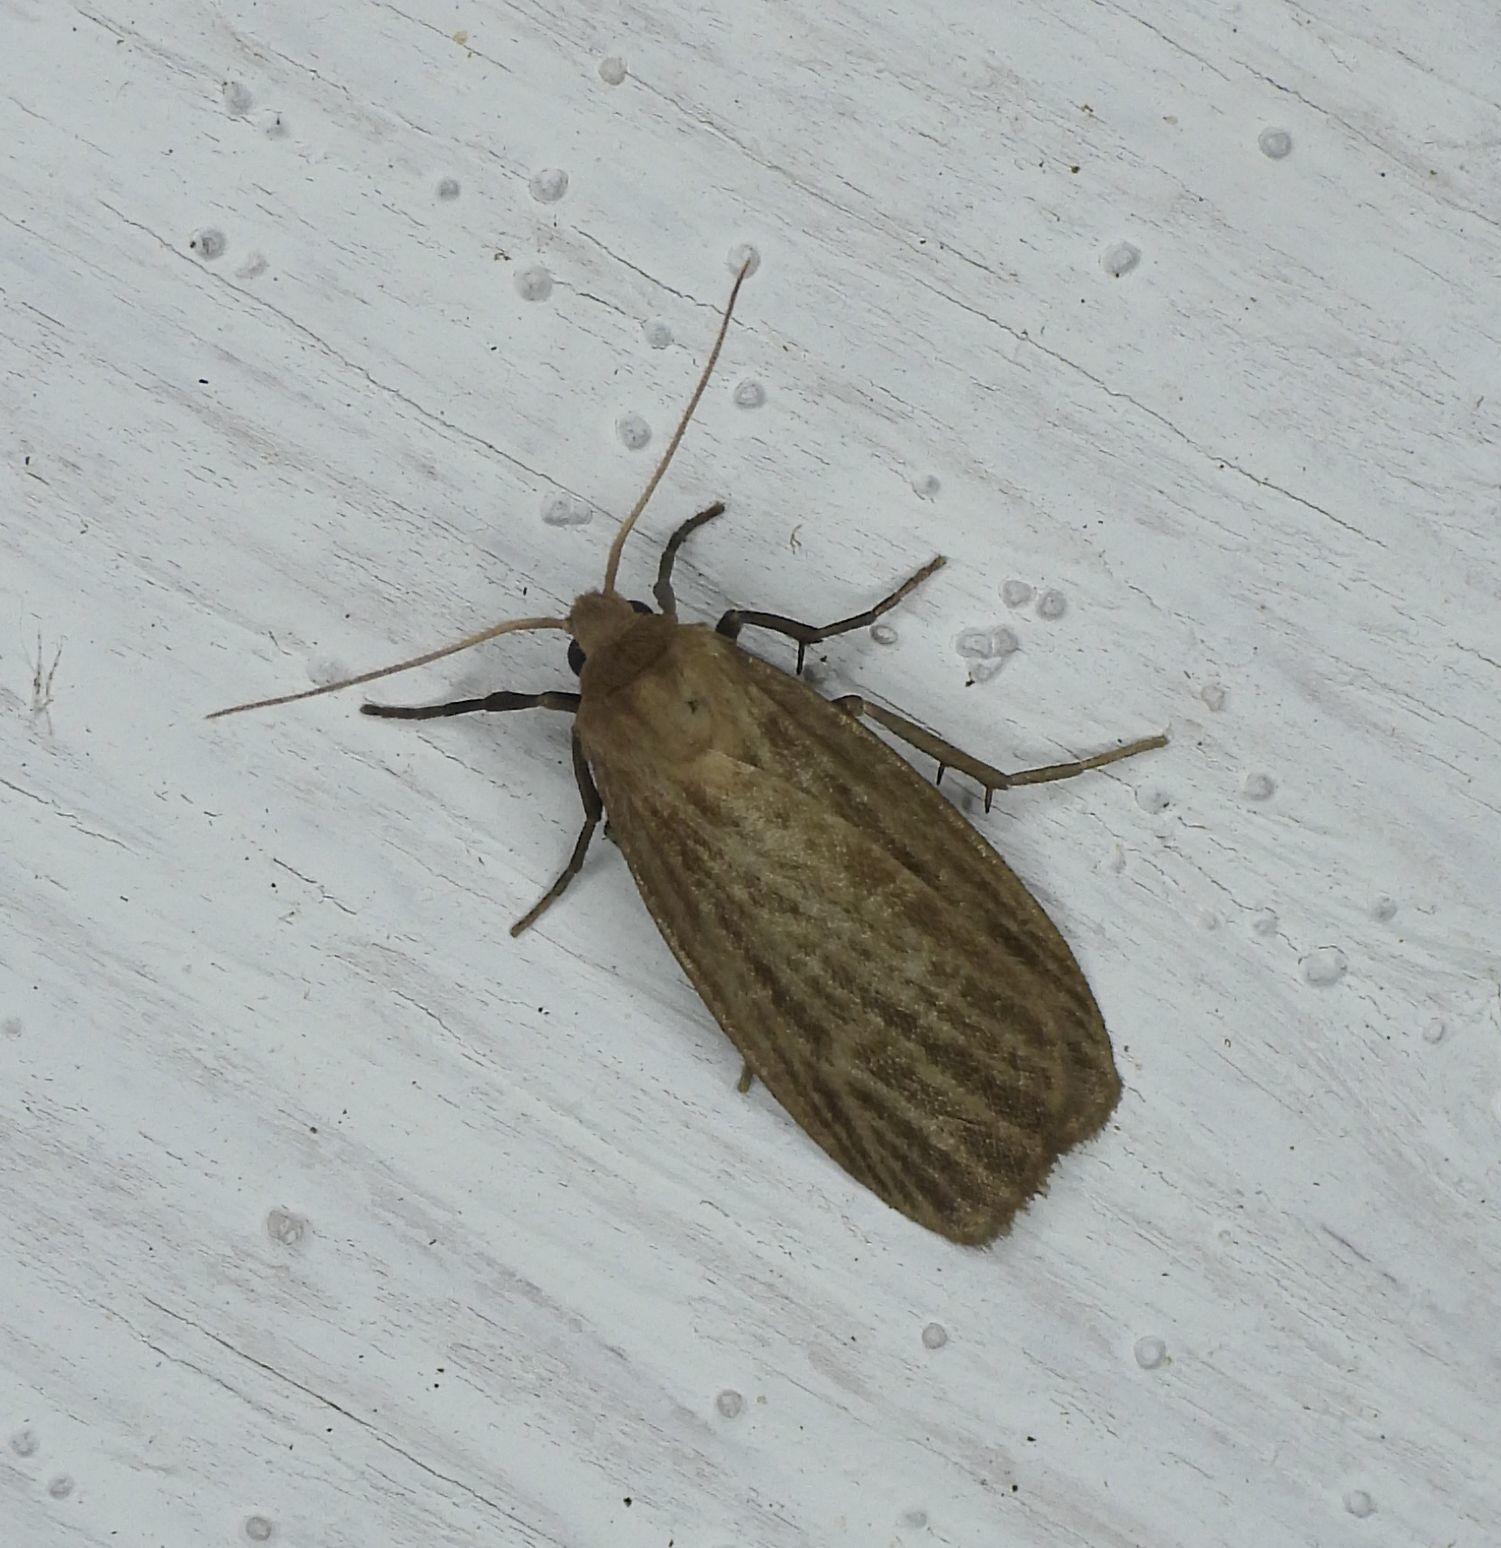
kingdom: Animalia
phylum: Arthropoda
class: Insecta
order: Lepidoptera
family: Erebidae
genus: Crambidia
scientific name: Crambidia pallida
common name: Pale lichen moth
